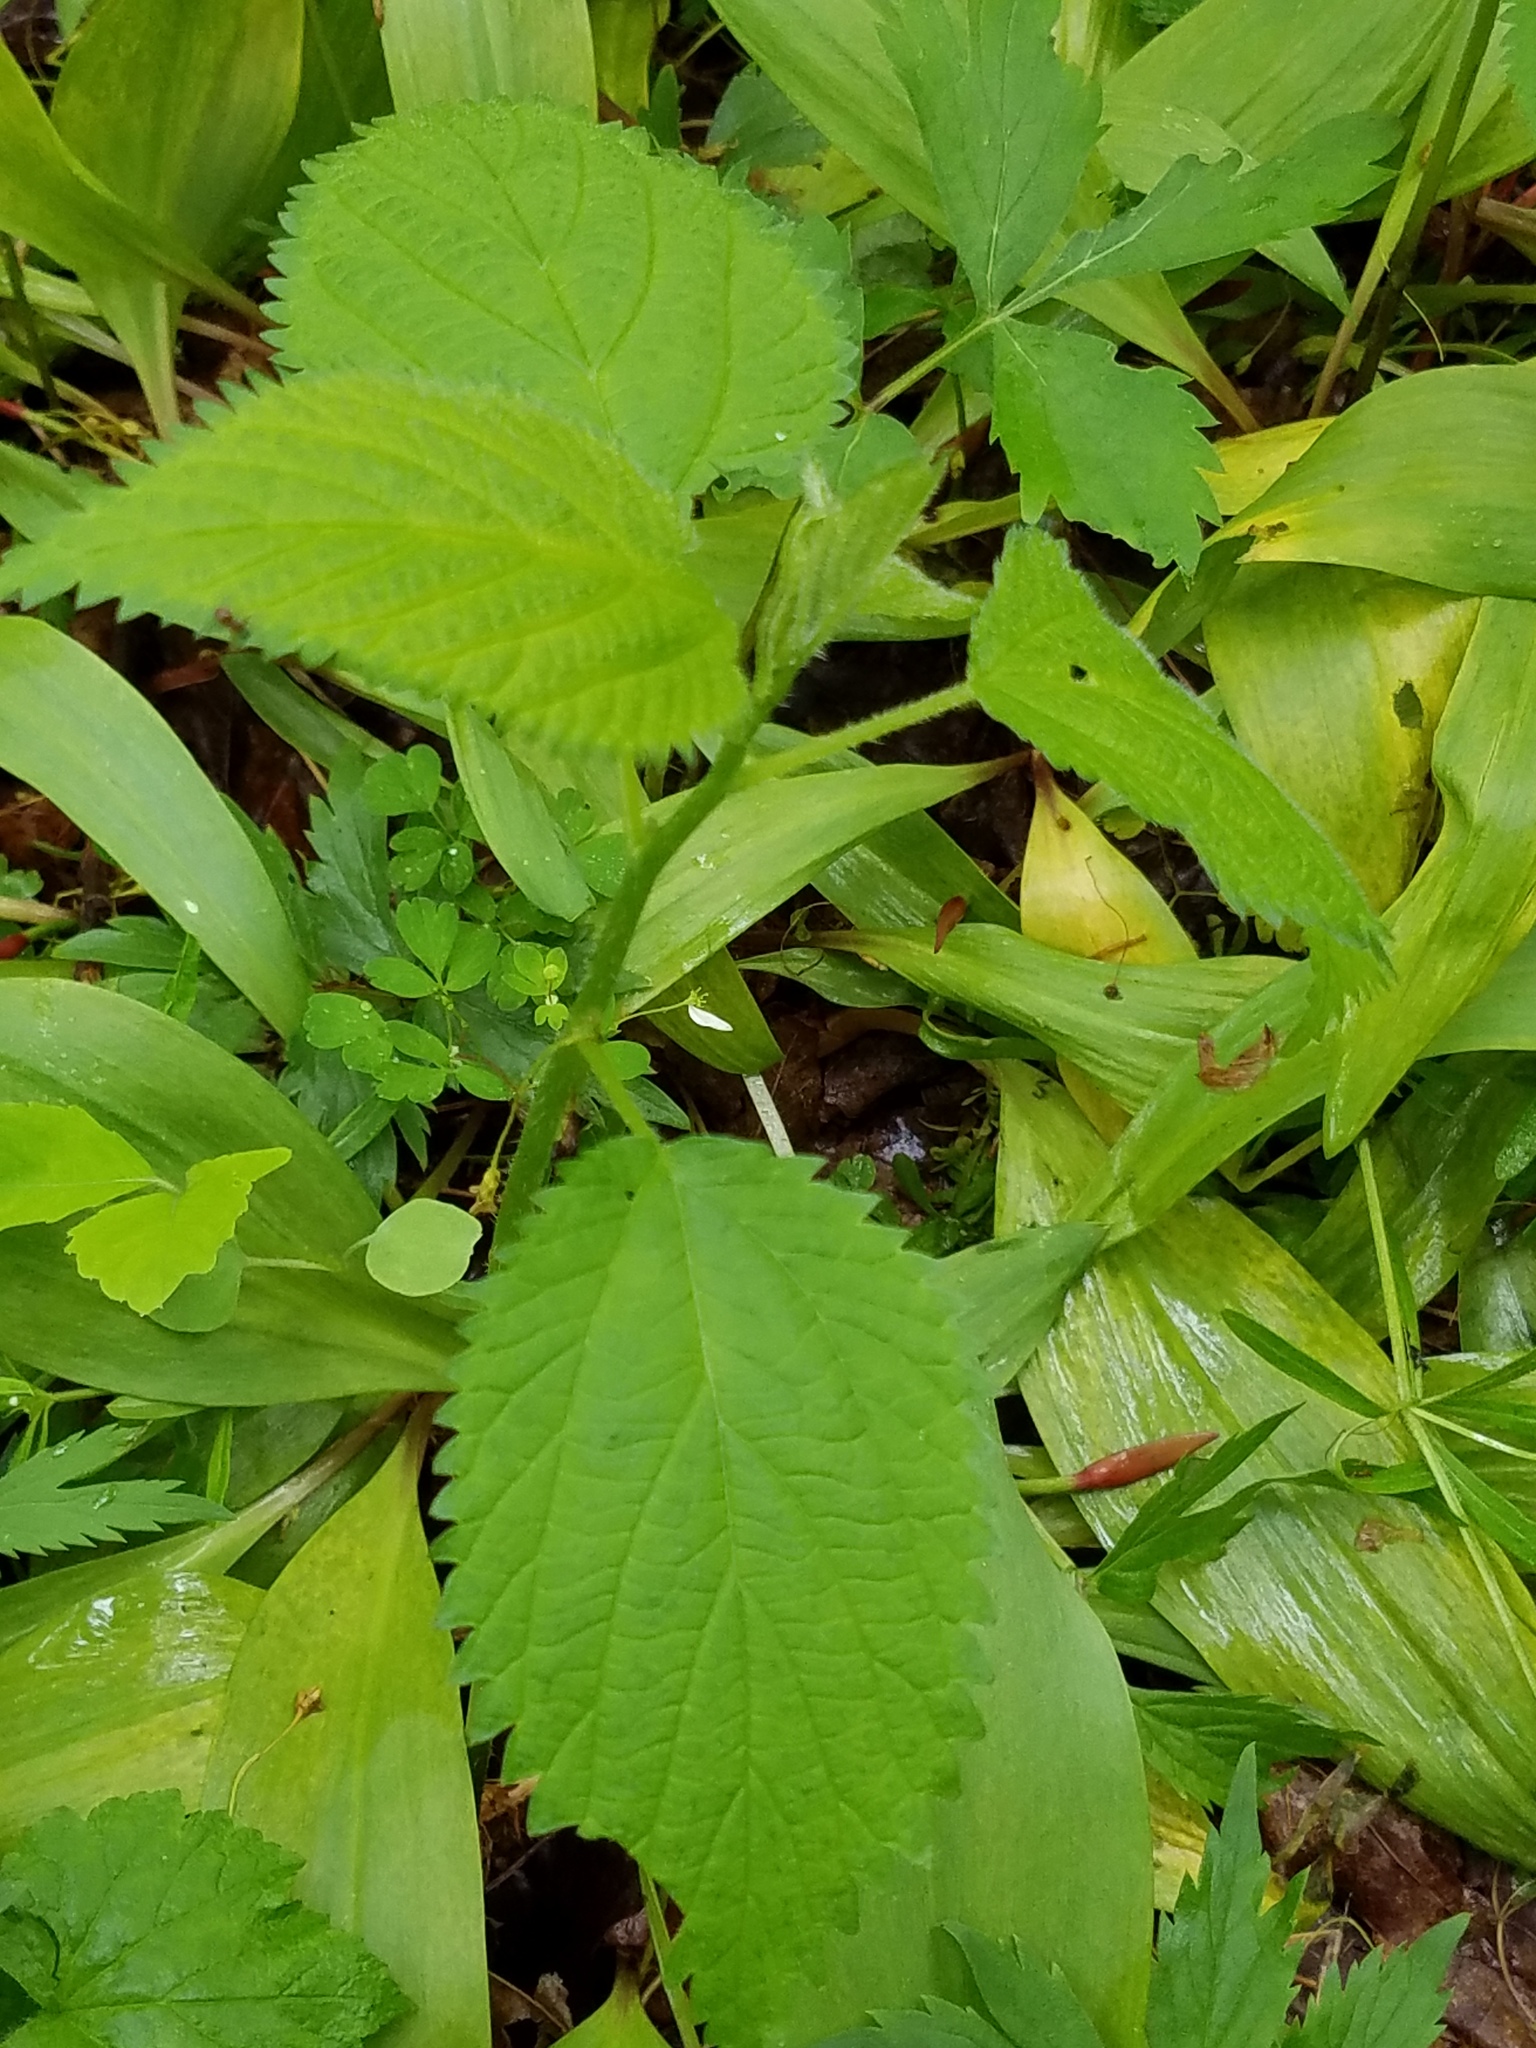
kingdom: Plantae
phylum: Tracheophyta
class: Magnoliopsida
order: Rosales
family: Urticaceae
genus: Laportea
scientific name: Laportea canadensis
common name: Canada nettle
